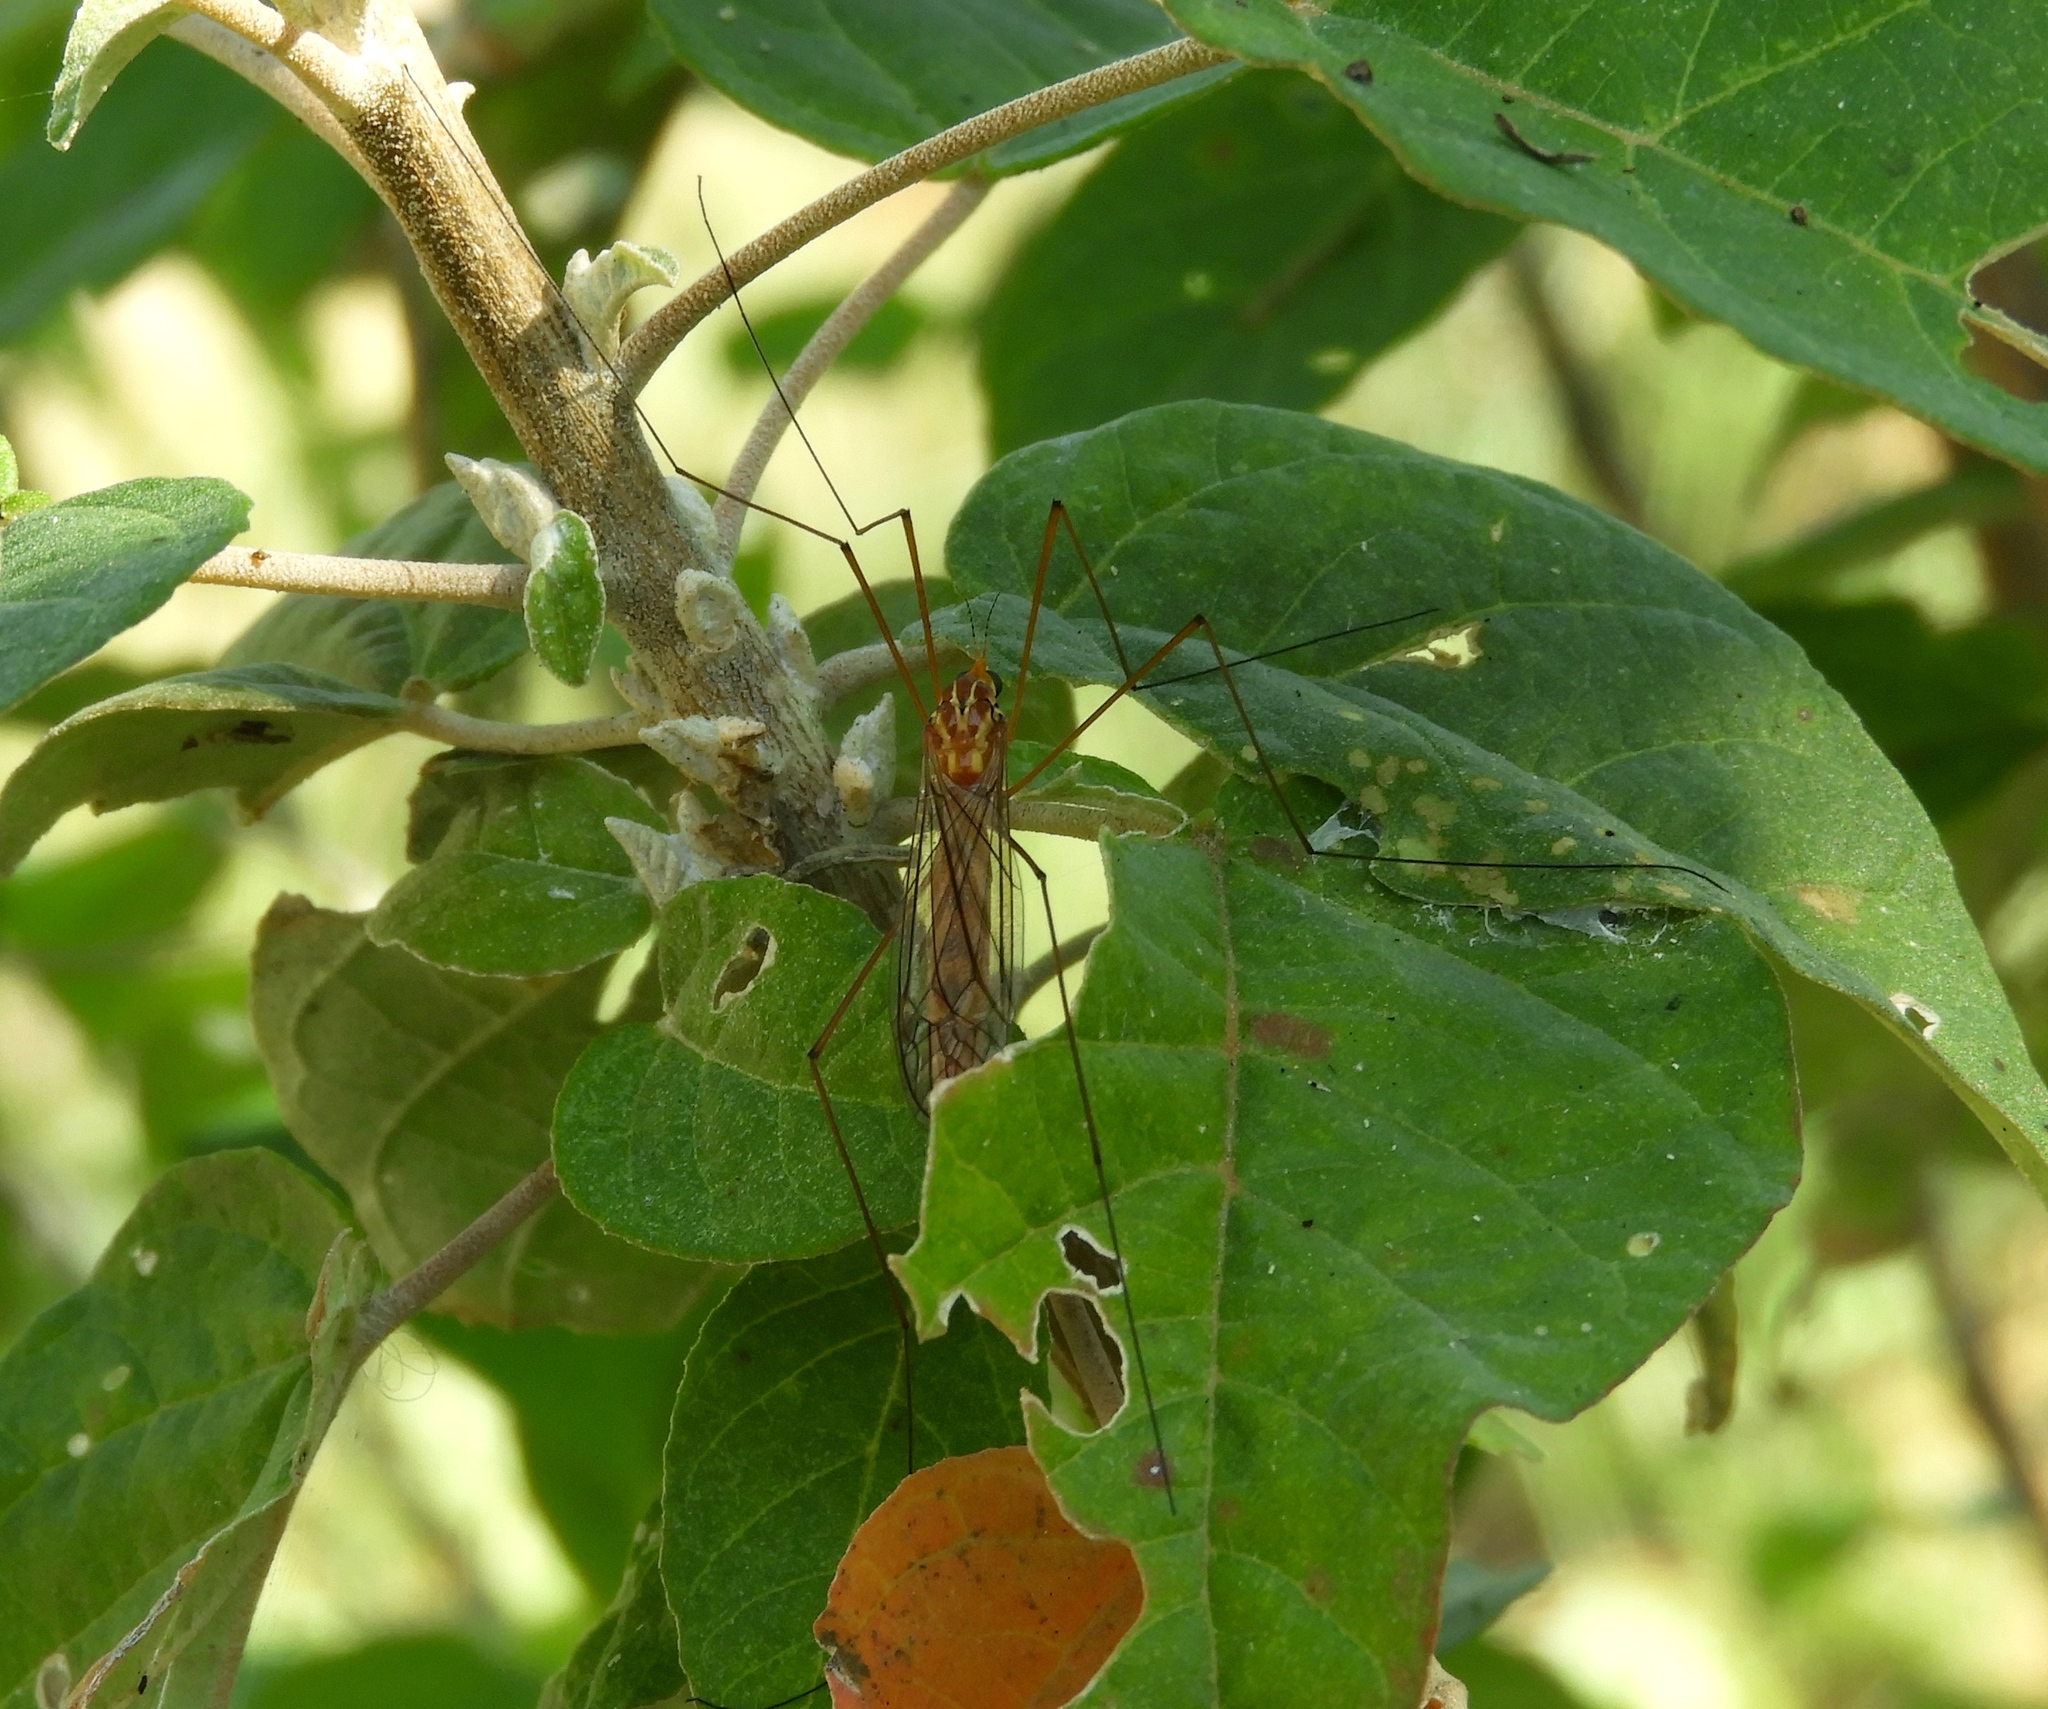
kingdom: Animalia
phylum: Arthropoda
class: Insecta
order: Diptera
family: Tipulidae
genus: Nephrotoma
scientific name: Nephrotoma ferruginea
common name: Ferruginous tiger crane fly
